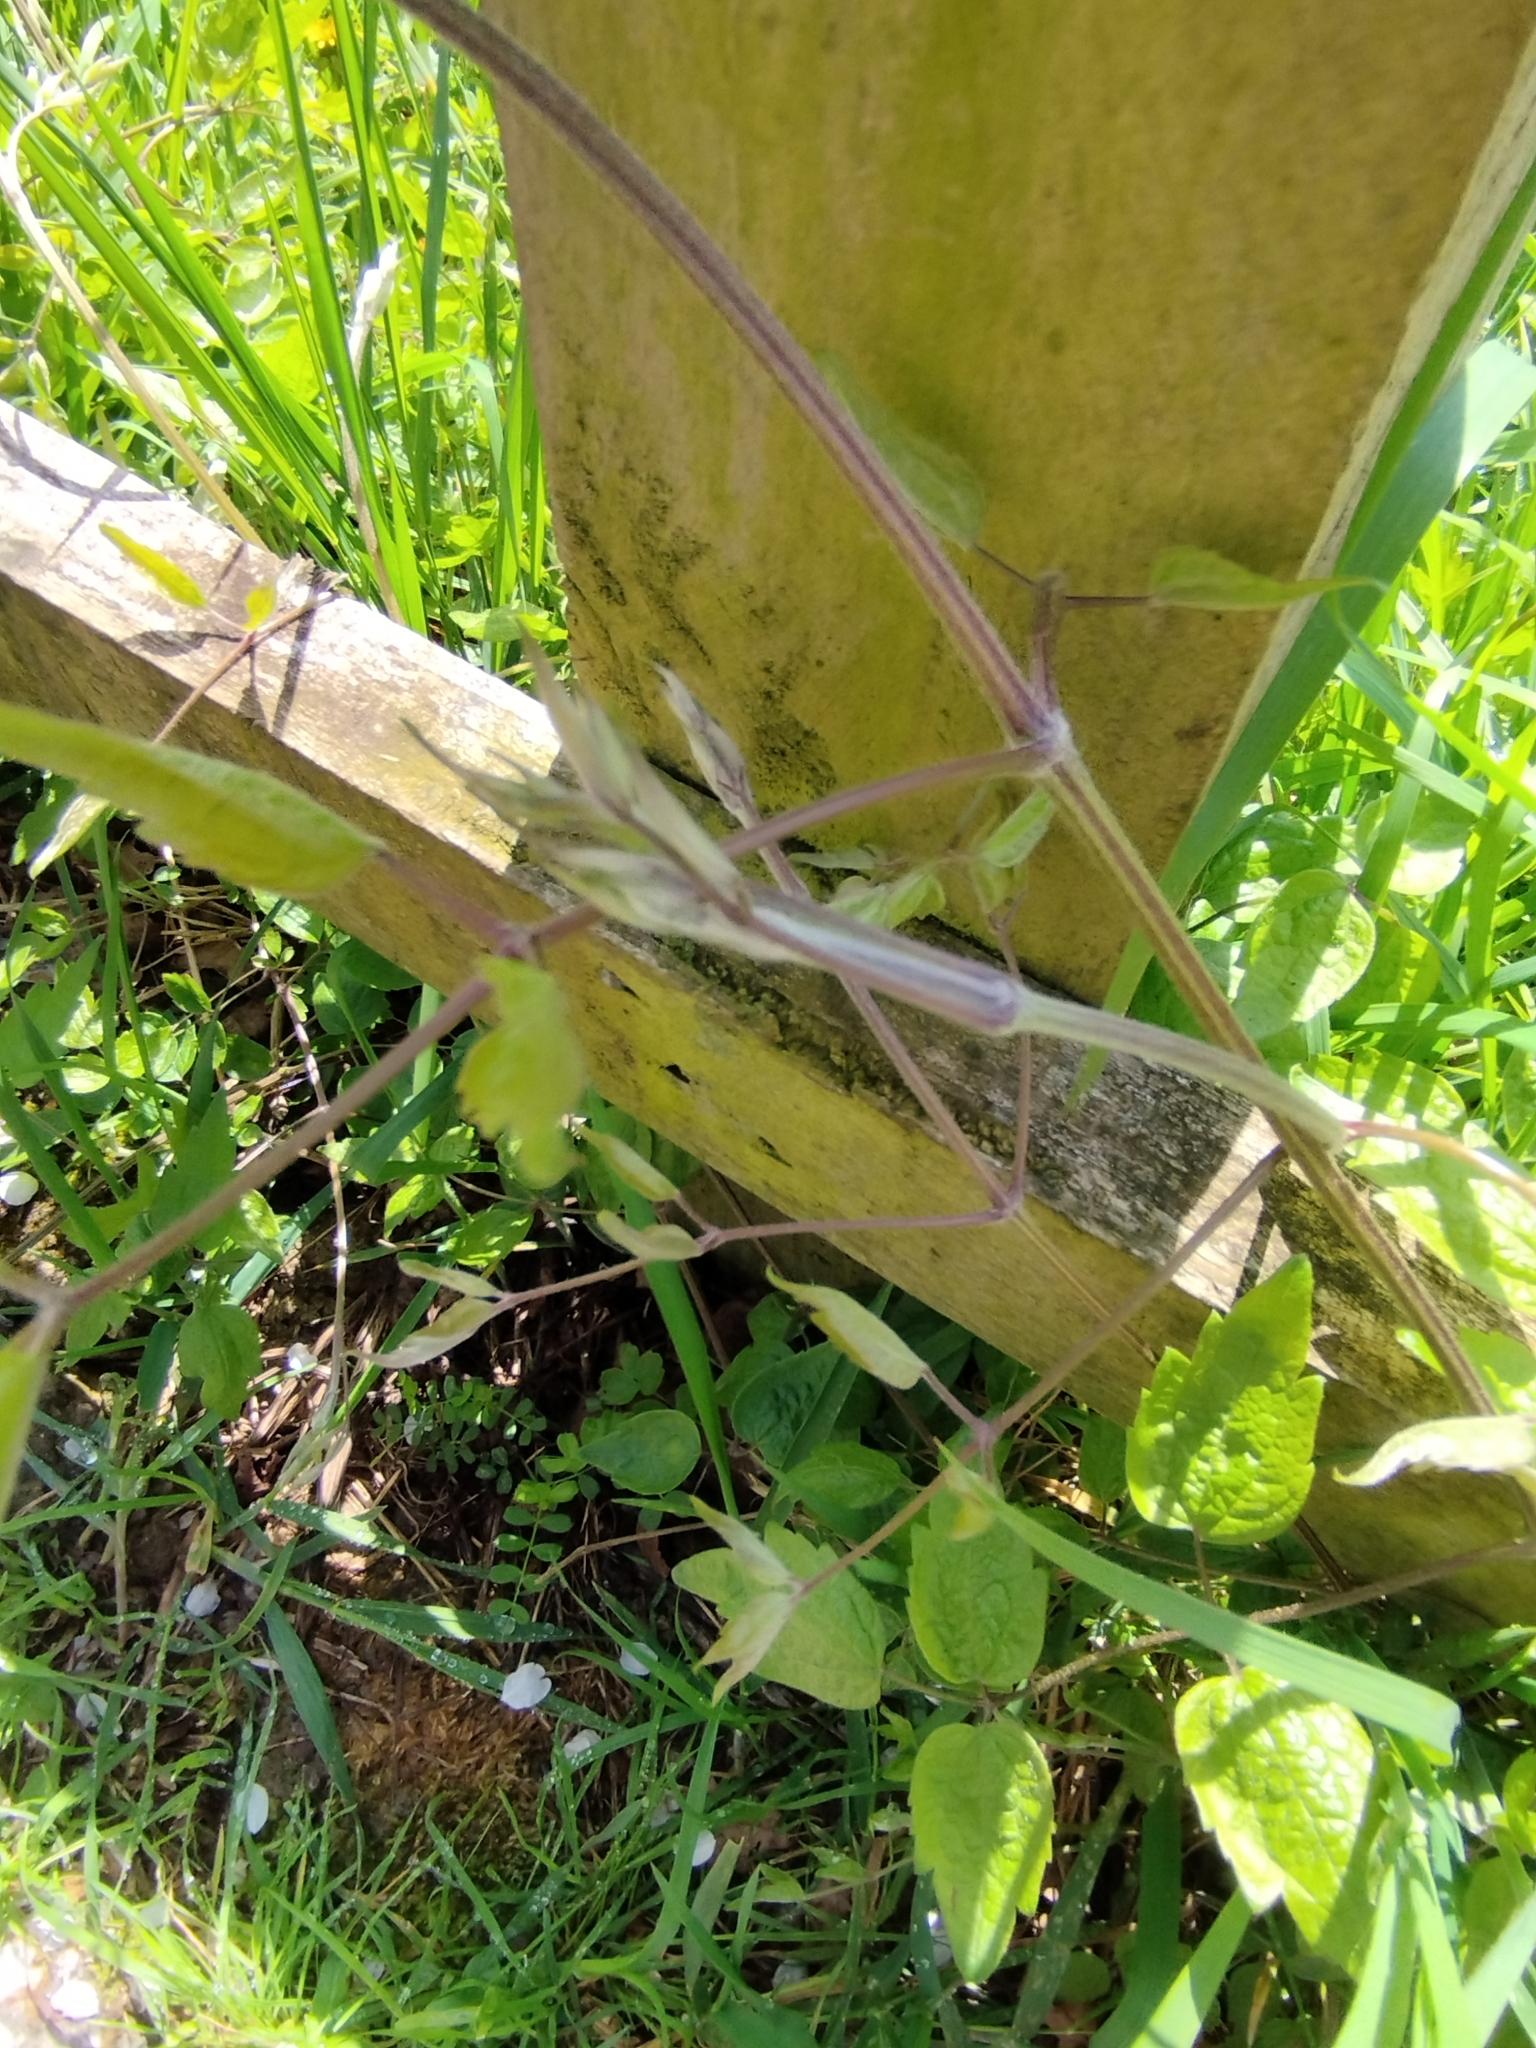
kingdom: Plantae
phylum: Tracheophyta
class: Magnoliopsida
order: Ranunculales
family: Ranunculaceae
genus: Clematis
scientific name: Clematis vitalba
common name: Evergreen clematis
